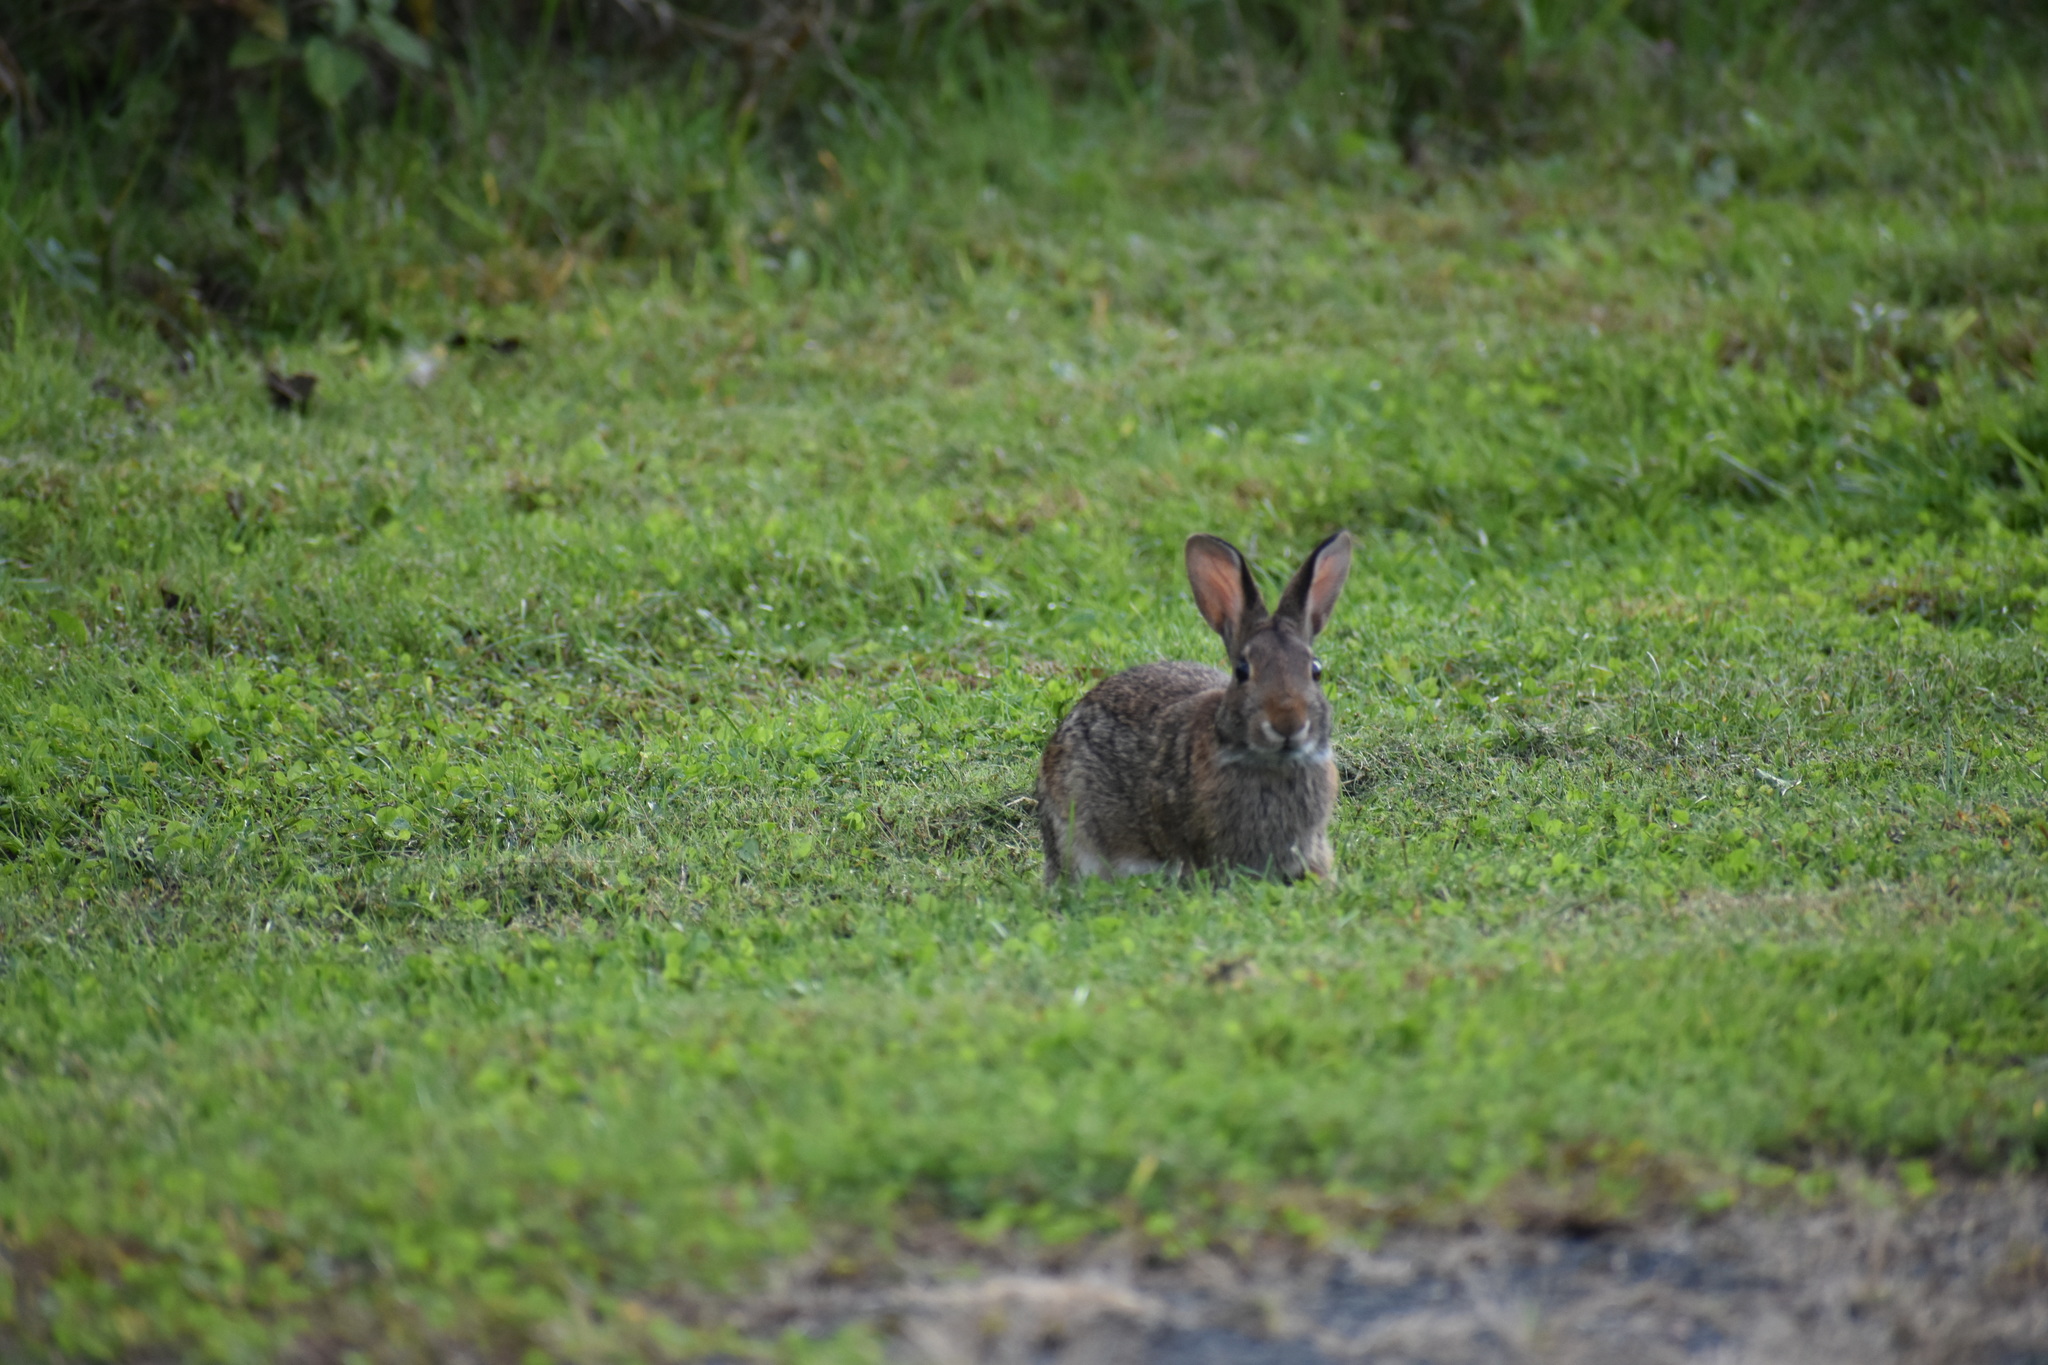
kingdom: Animalia
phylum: Chordata
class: Mammalia
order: Lagomorpha
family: Leporidae
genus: Sylvilagus
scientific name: Sylvilagus floridanus
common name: Eastern cottontail
